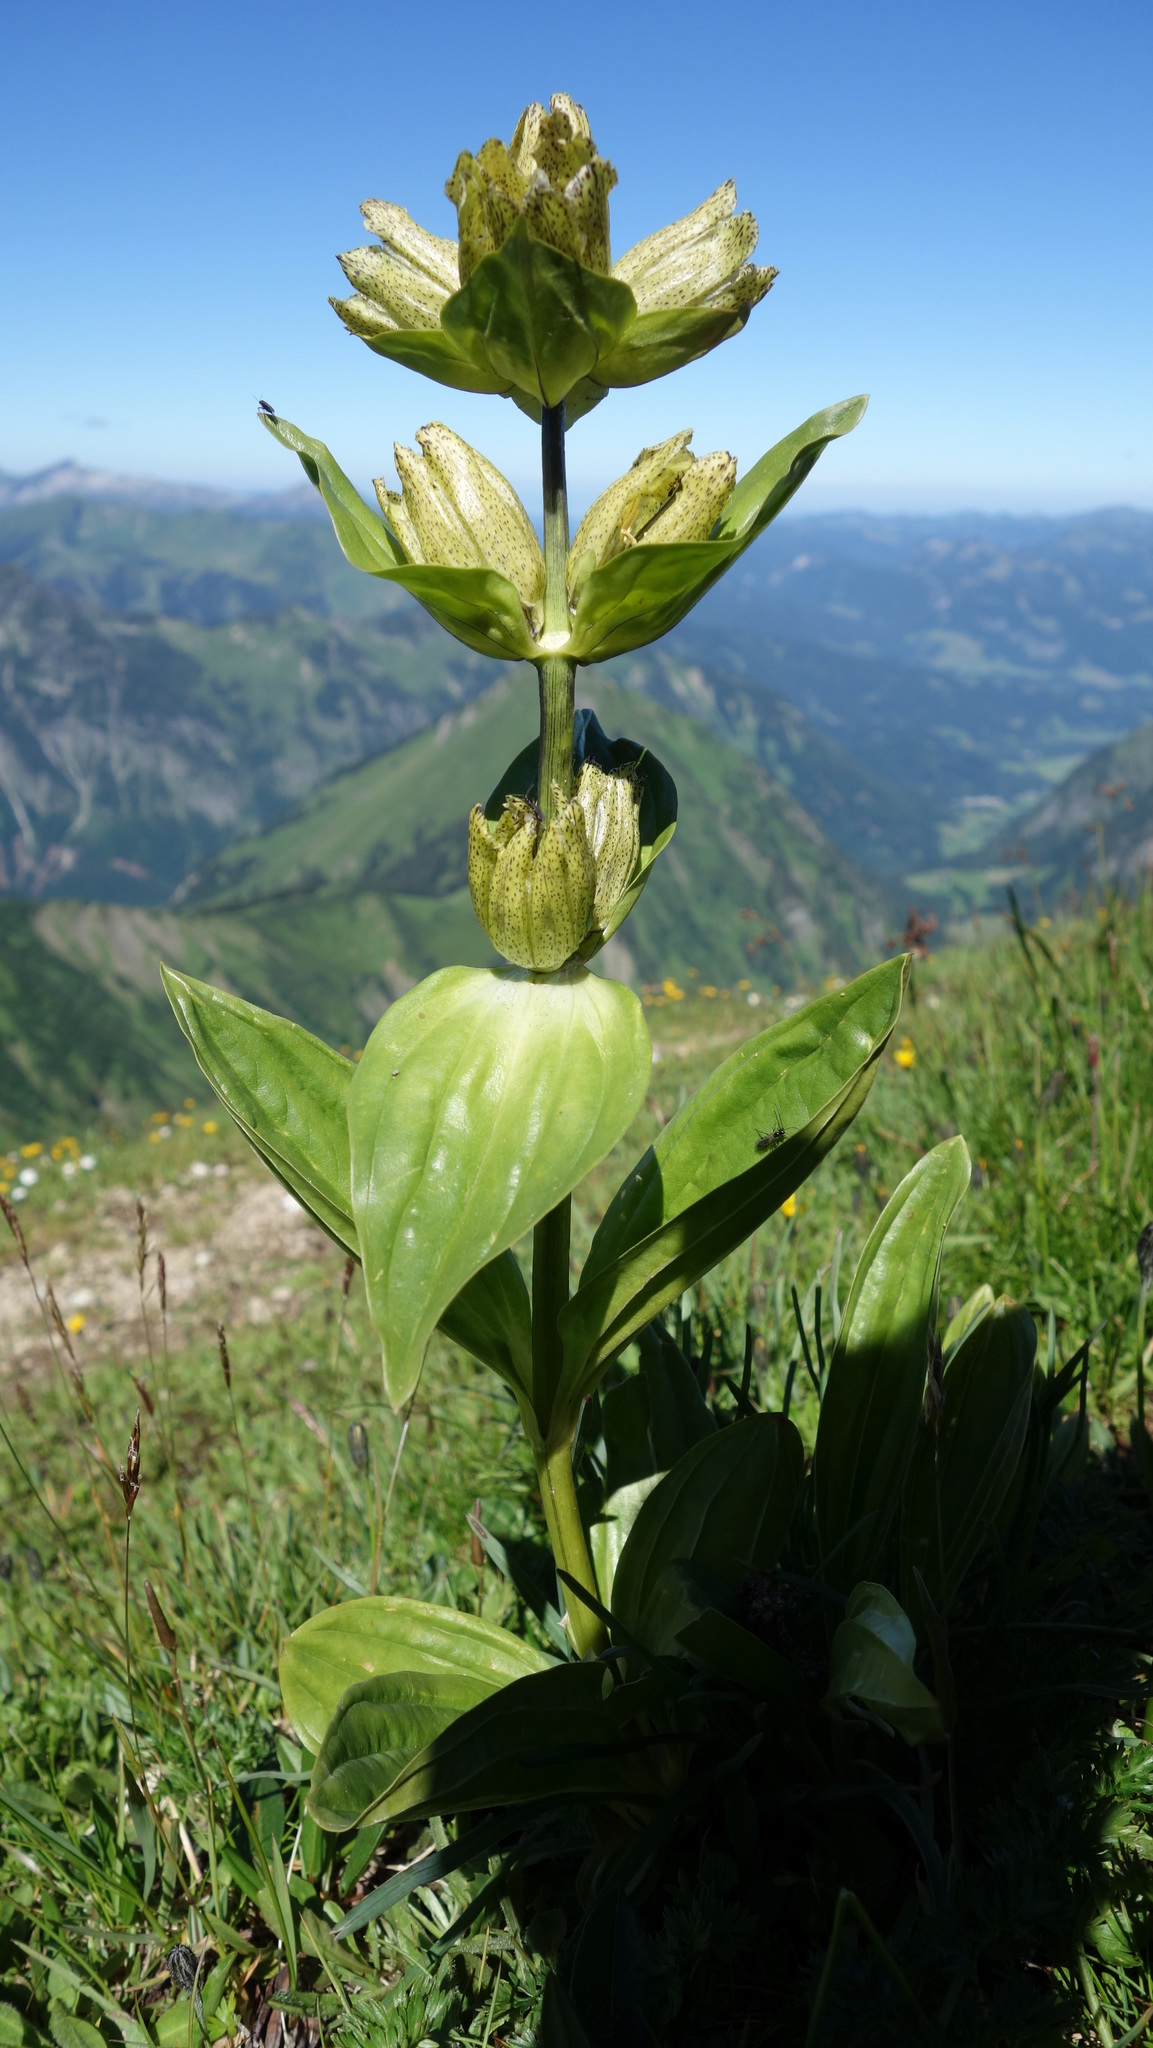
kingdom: Plantae
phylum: Tracheophyta
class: Magnoliopsida
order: Gentianales
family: Gentianaceae
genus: Gentiana
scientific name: Gentiana punctata
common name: Spotted gentian
